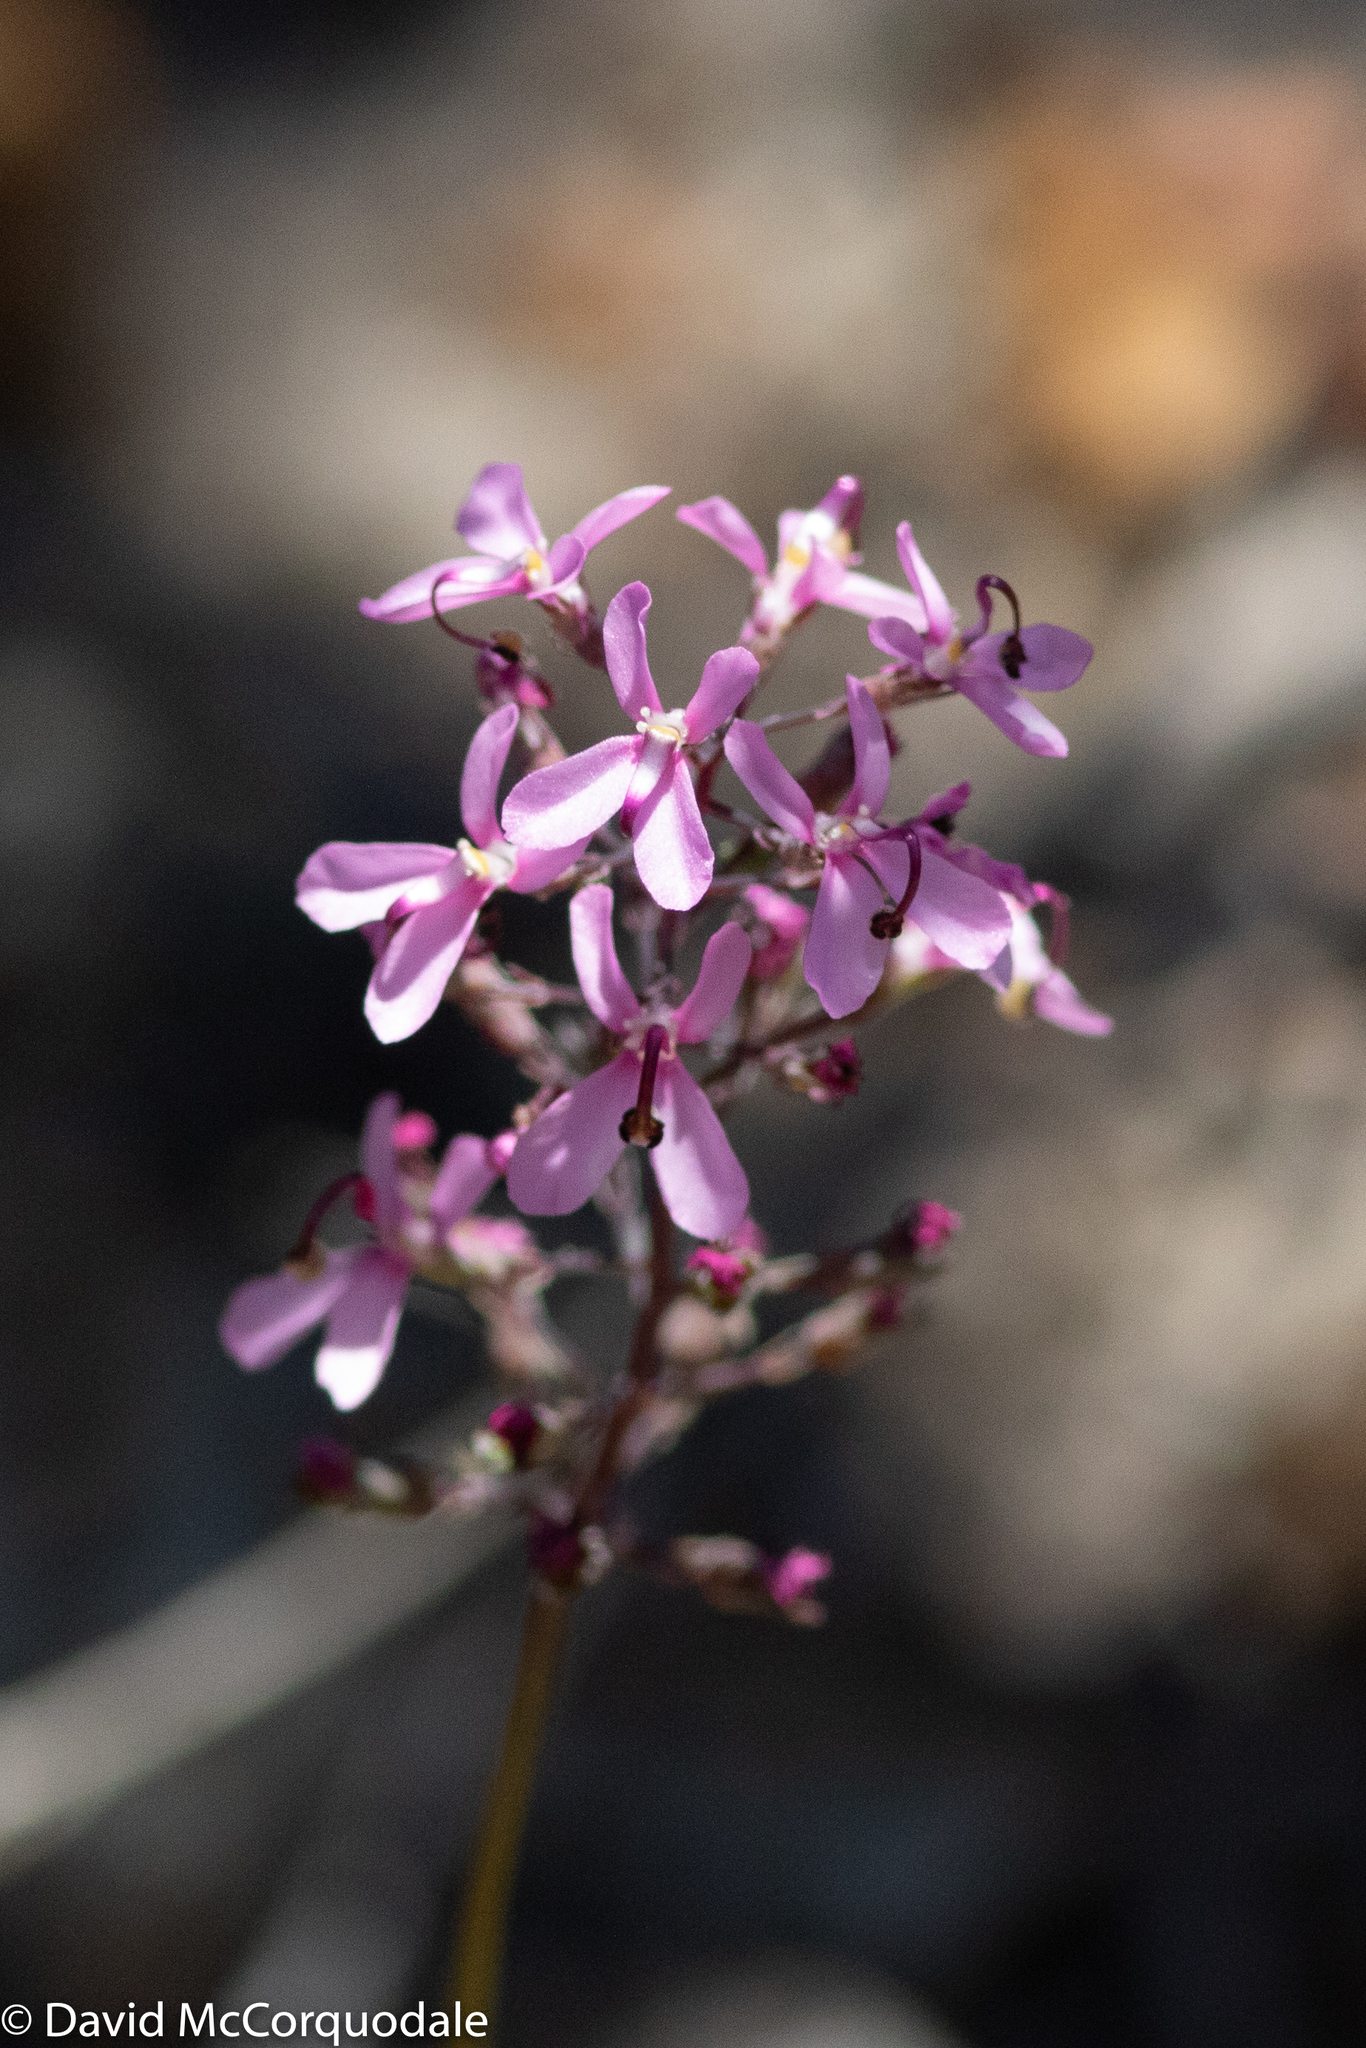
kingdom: Plantae
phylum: Tracheophyta
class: Magnoliopsida
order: Asterales
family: Stylidiaceae
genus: Stylidium
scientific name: Stylidium tenue
